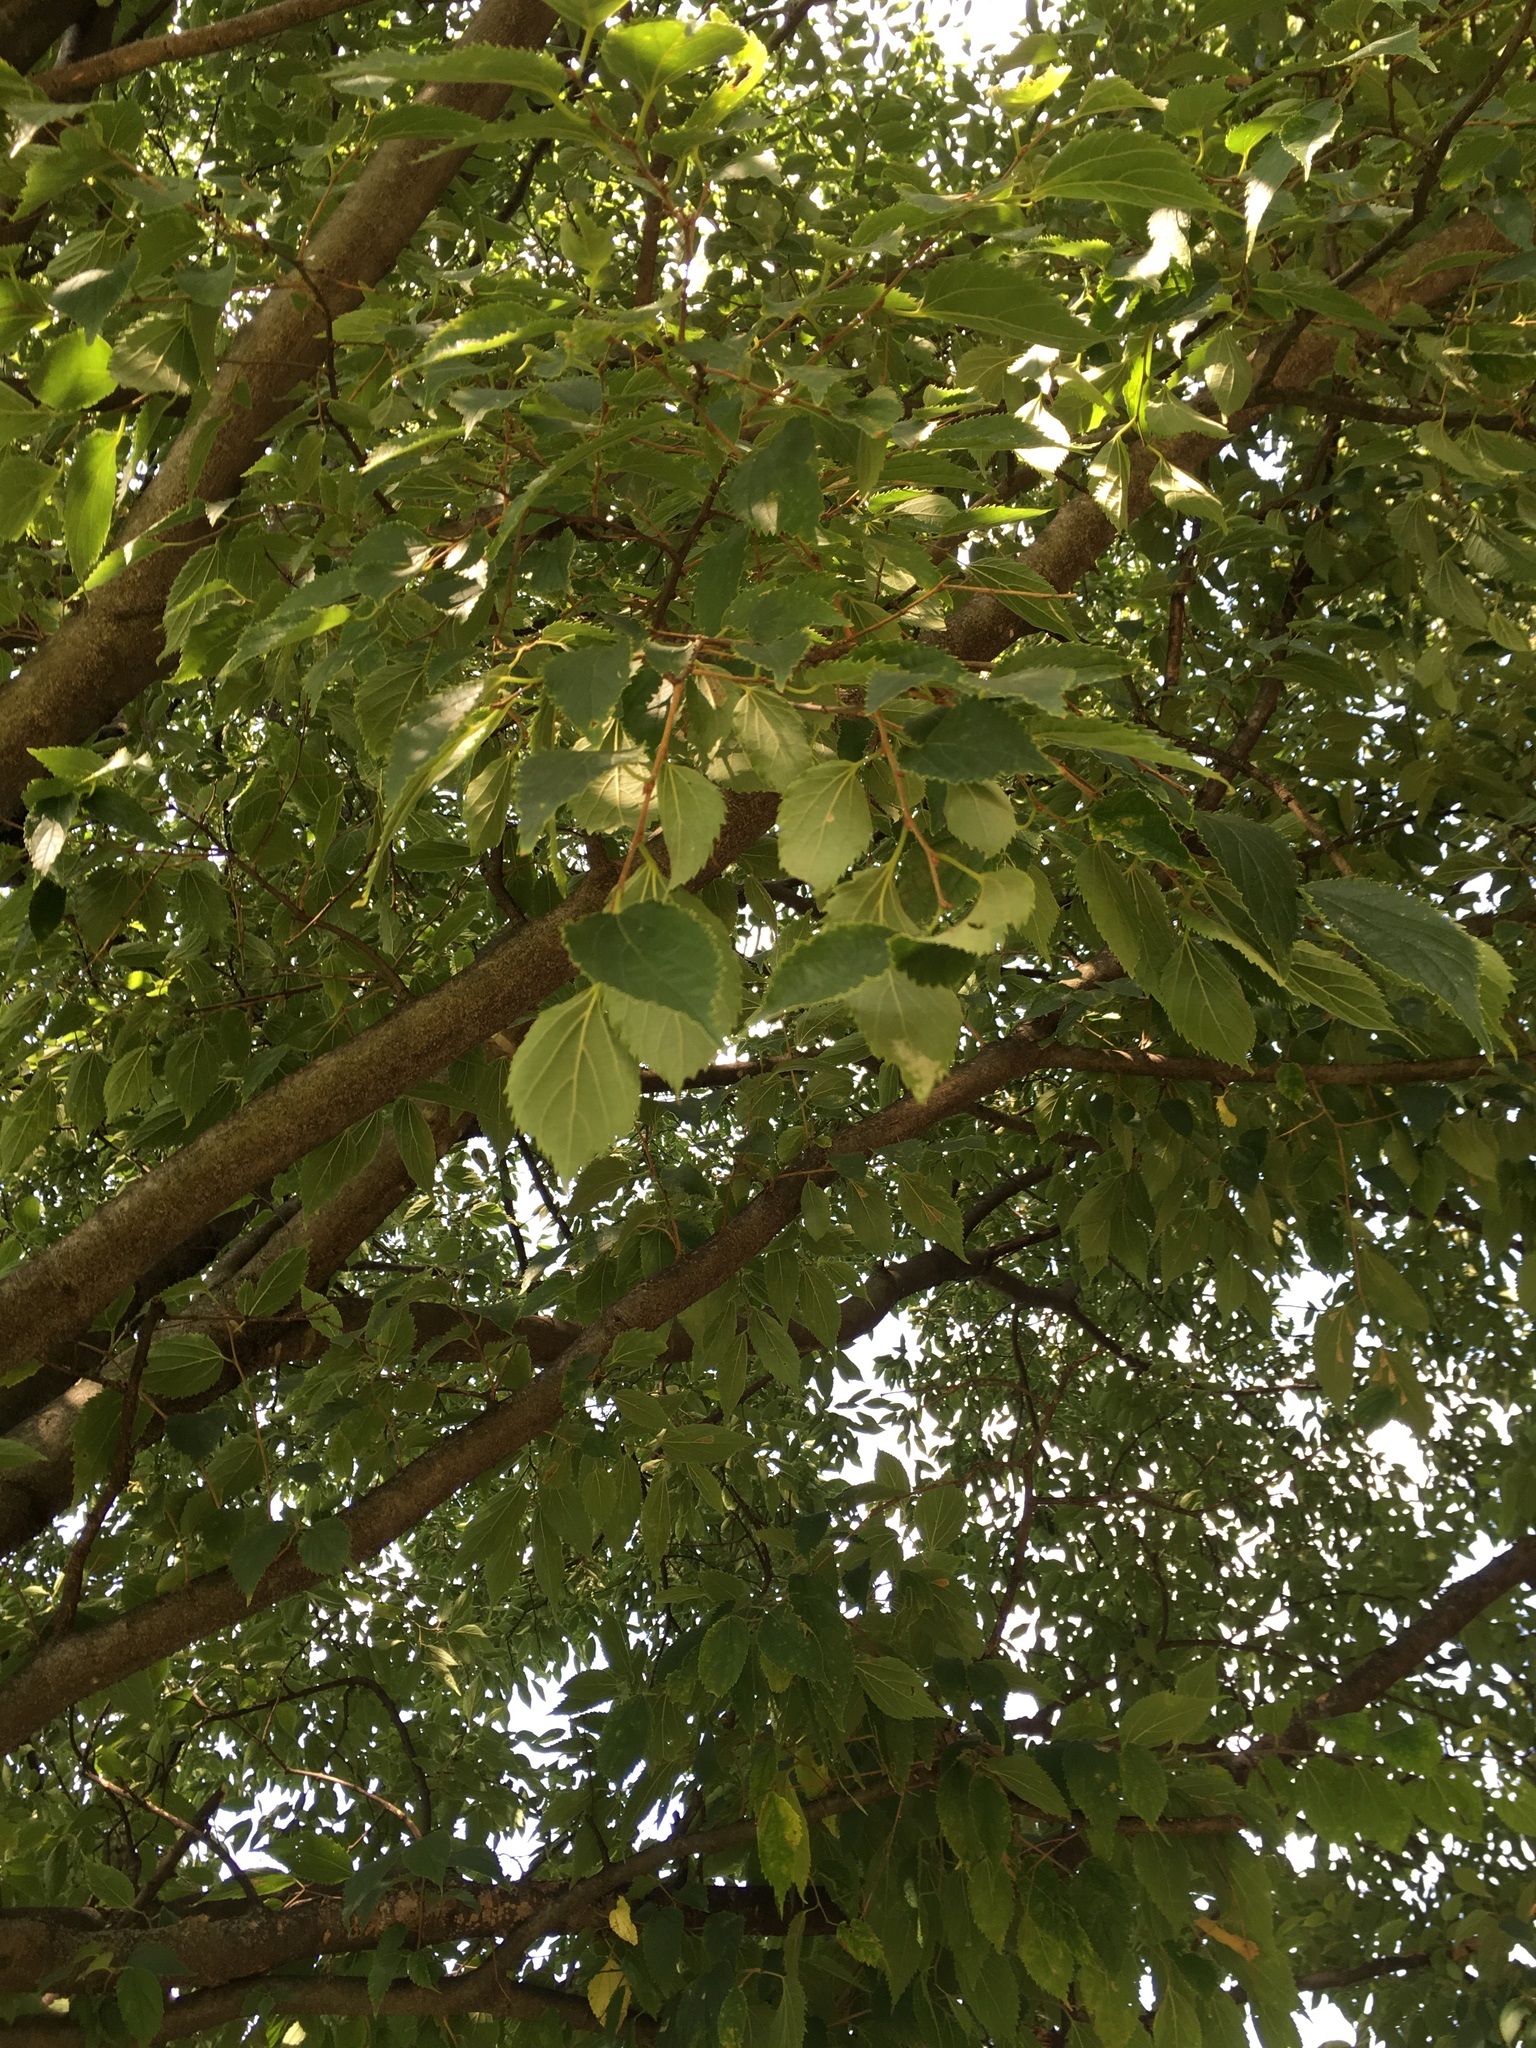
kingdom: Plantae
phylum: Tracheophyta
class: Magnoliopsida
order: Rosales
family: Cannabaceae
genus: Celtis
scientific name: Celtis australis
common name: European hackberry
